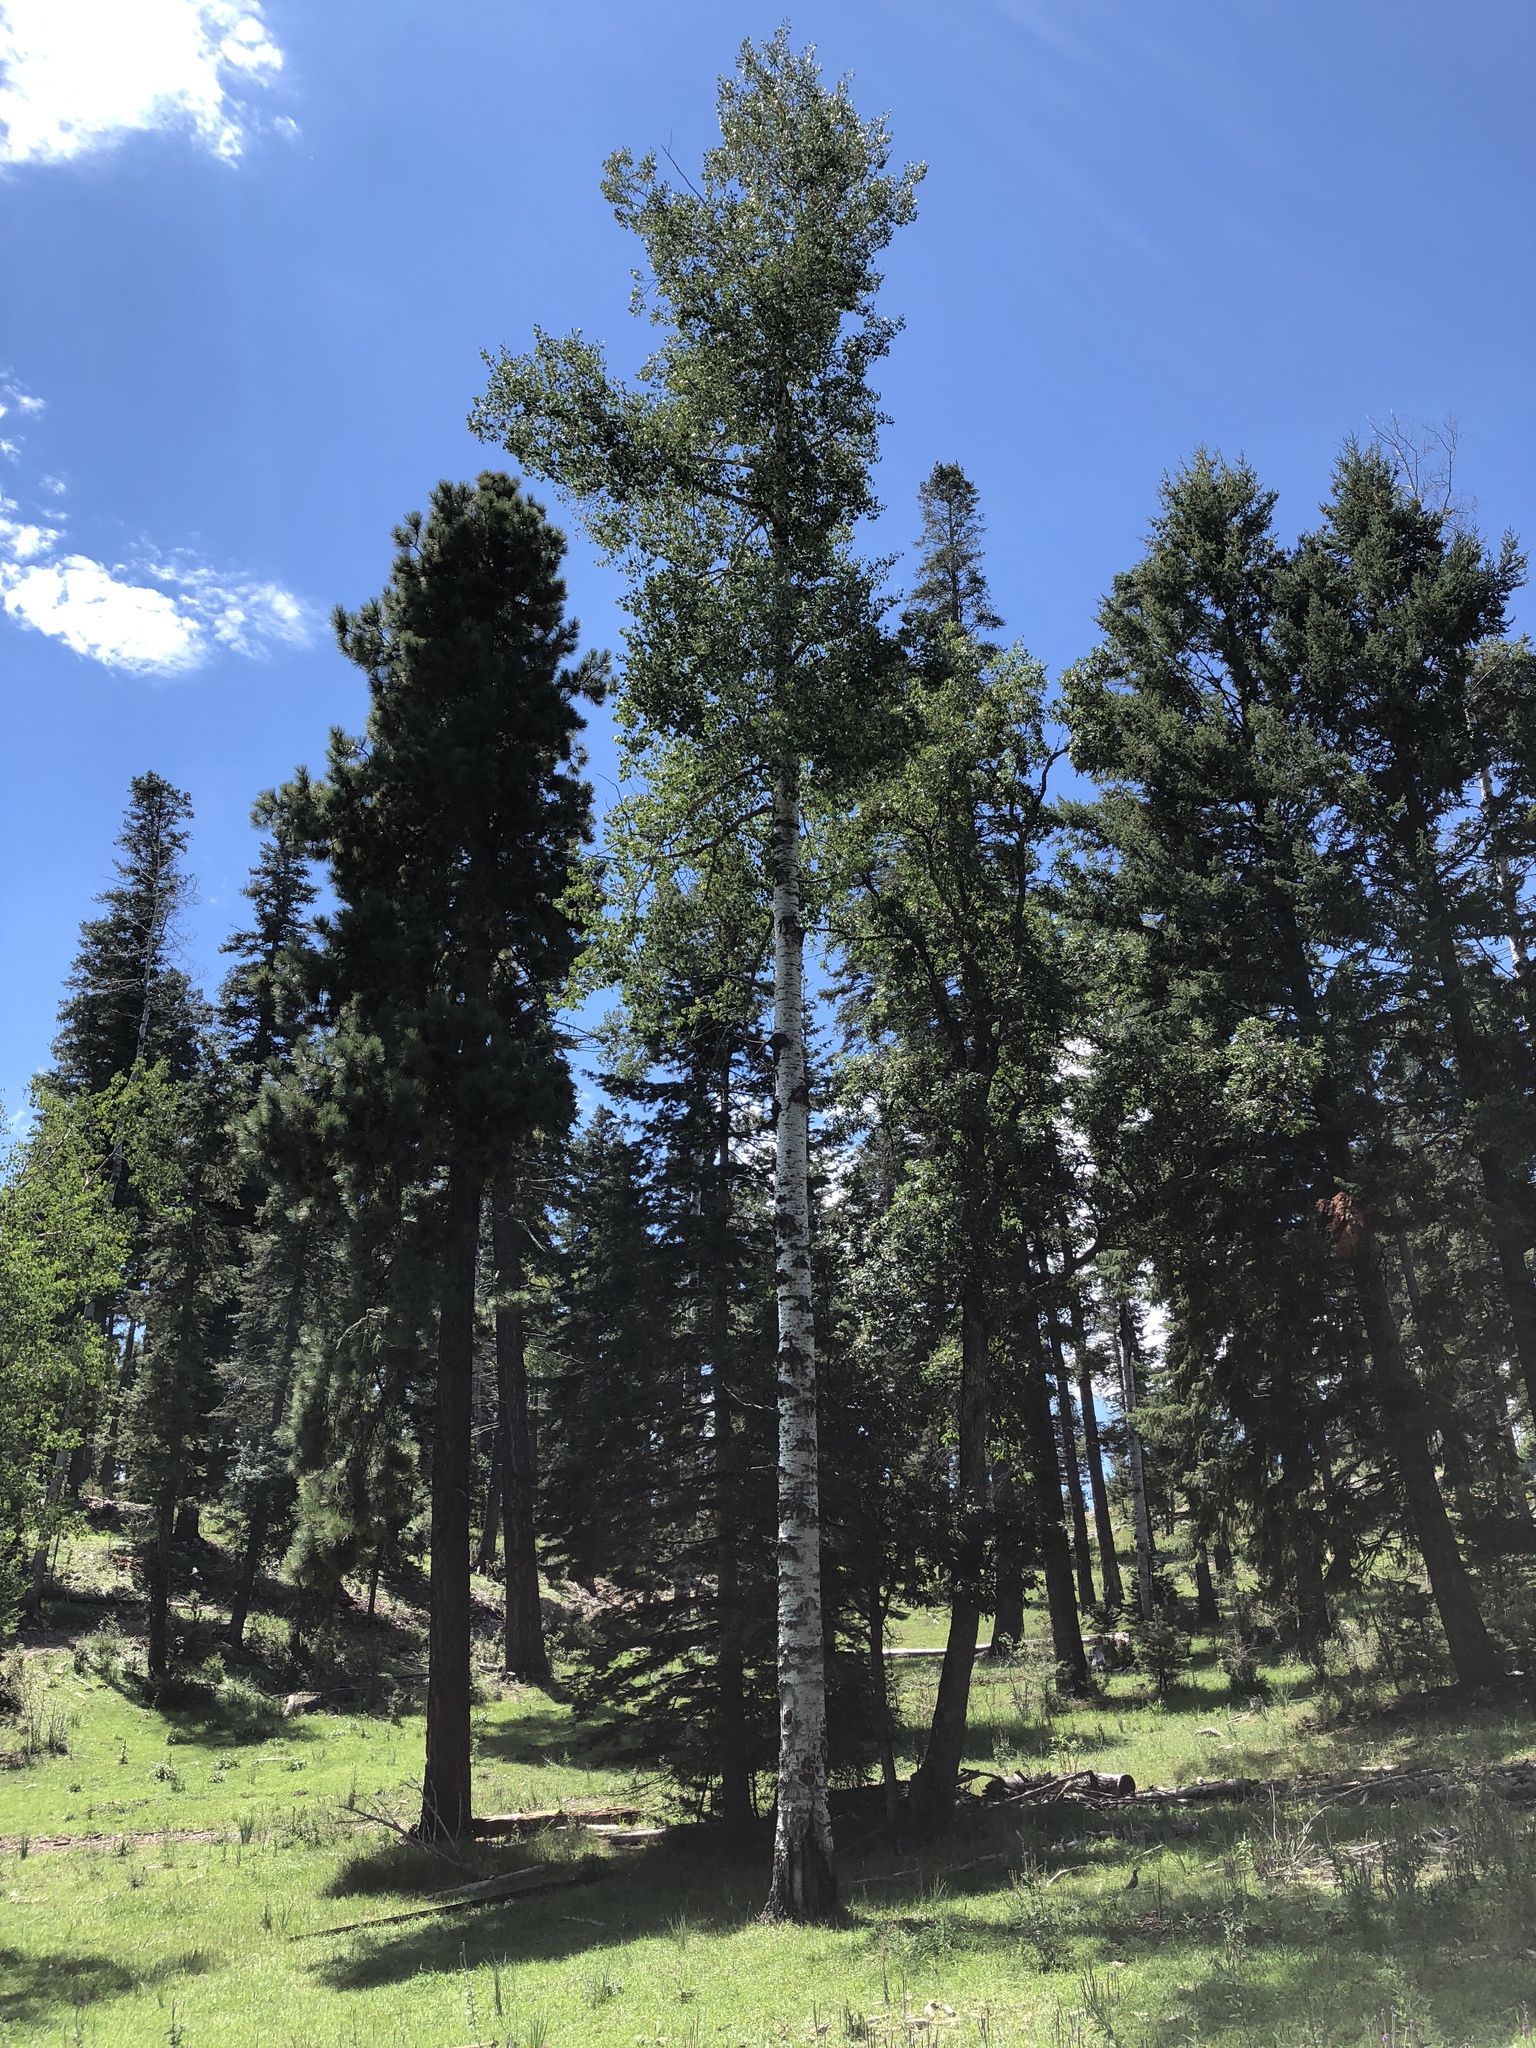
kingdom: Plantae
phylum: Tracheophyta
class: Magnoliopsida
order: Malpighiales
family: Salicaceae
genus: Populus
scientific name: Populus tremuloides
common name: Quaking aspen
